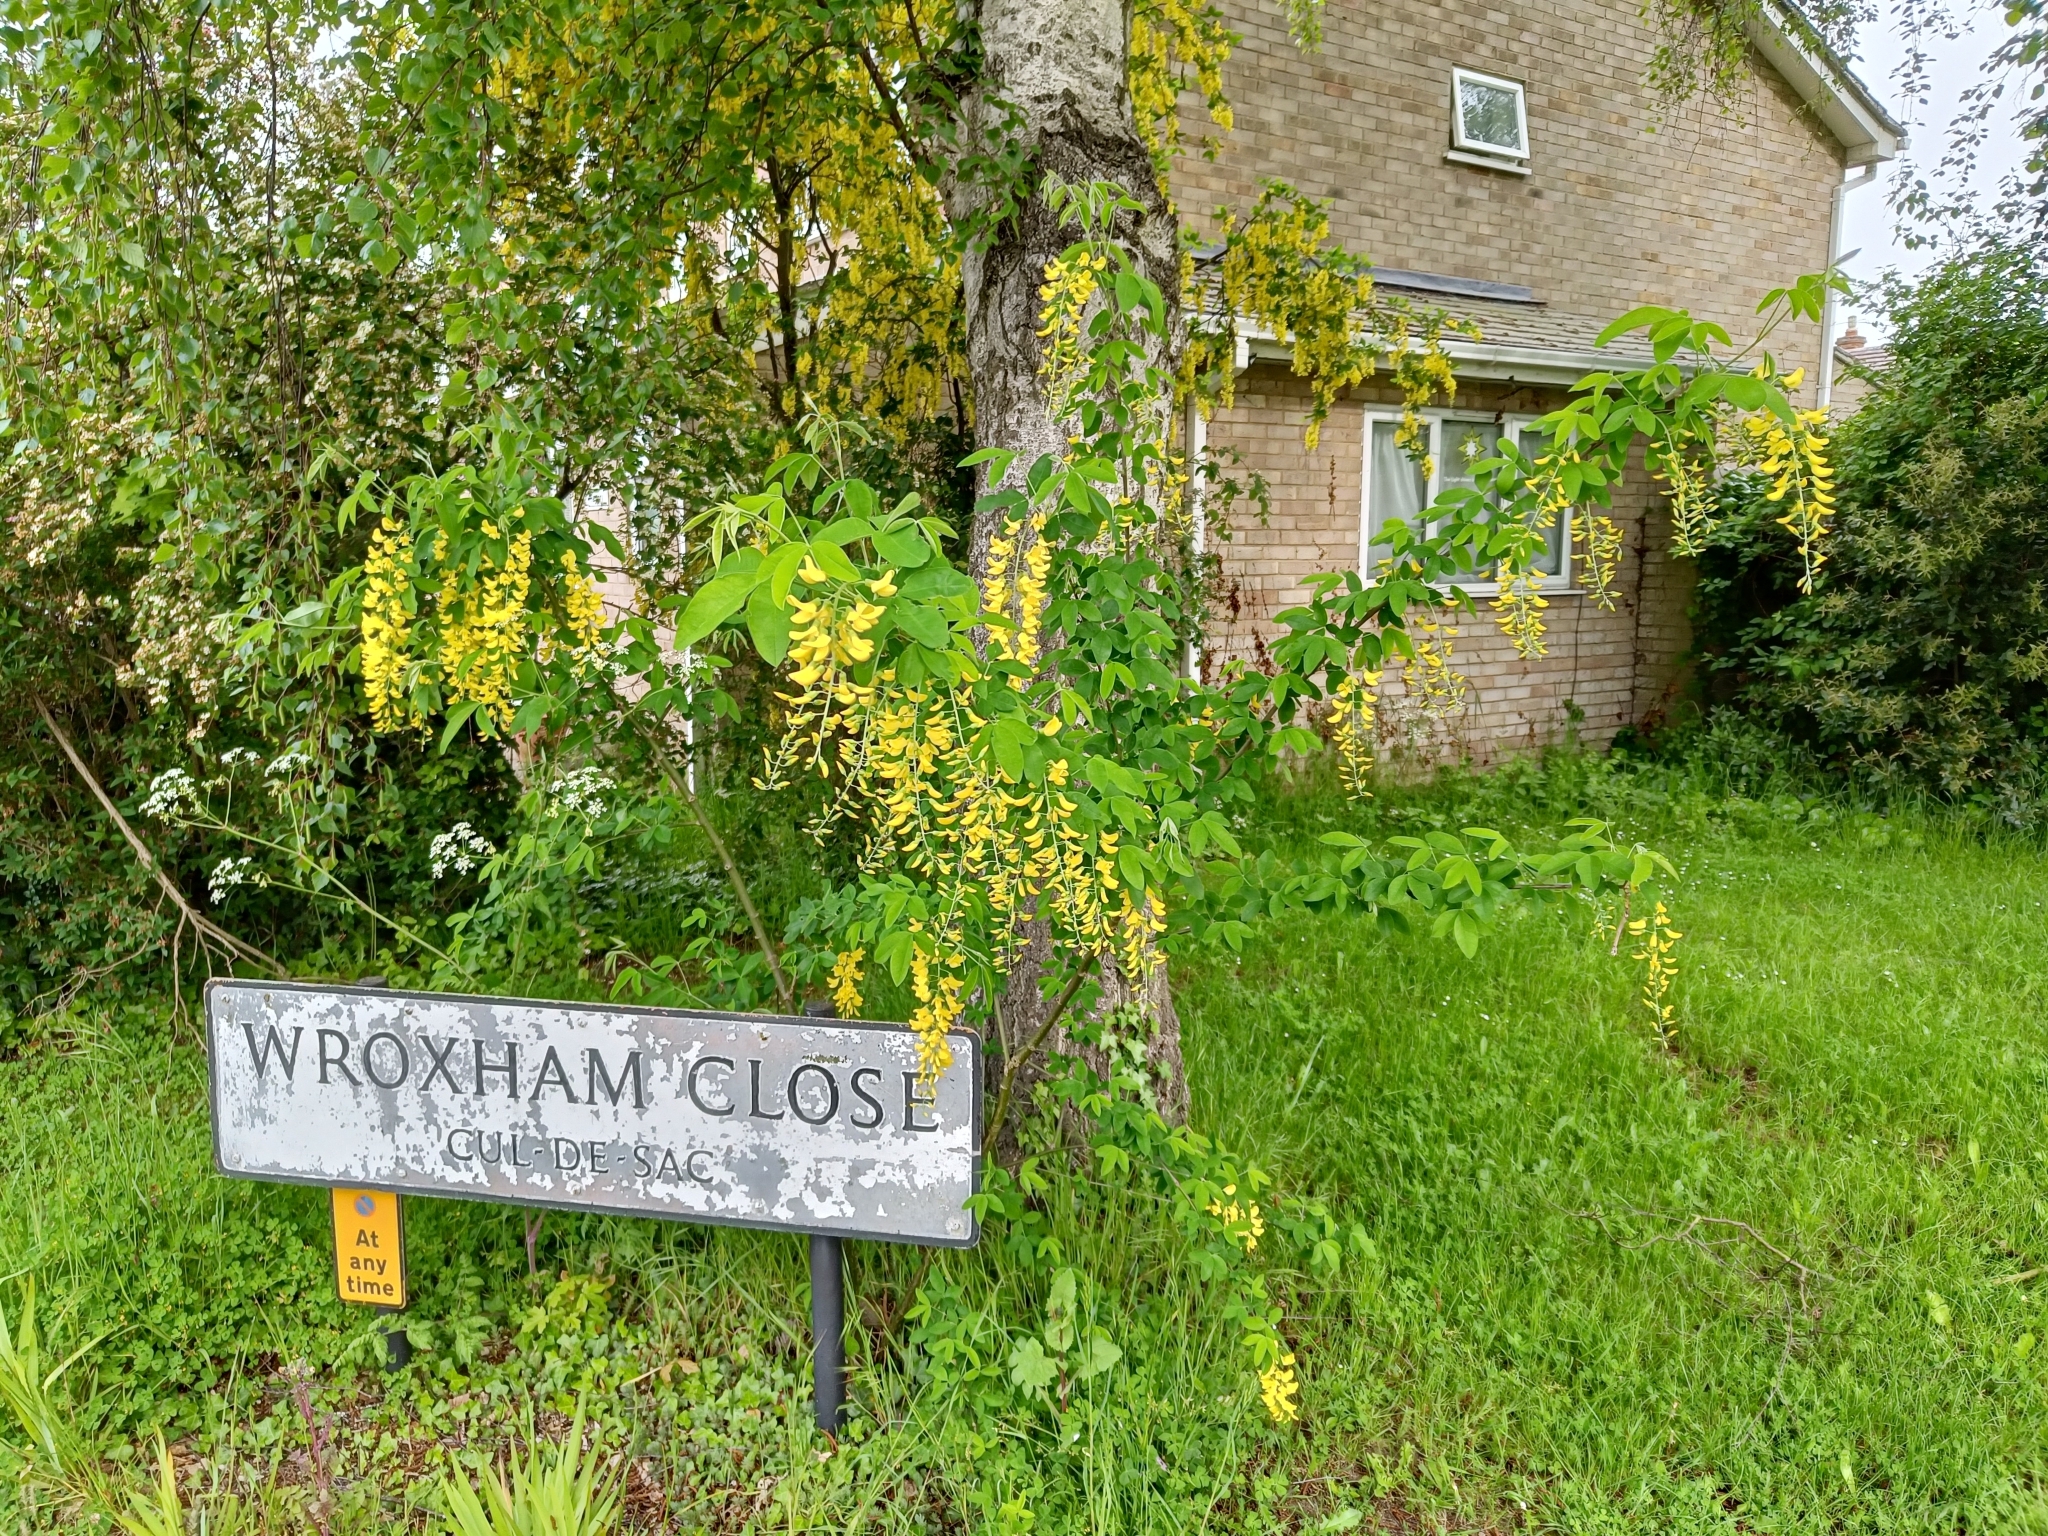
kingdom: Plantae
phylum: Tracheophyta
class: Magnoliopsida
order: Fabales
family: Fabaceae
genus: Laburnum
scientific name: Laburnum anagyroides
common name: Laburnum
